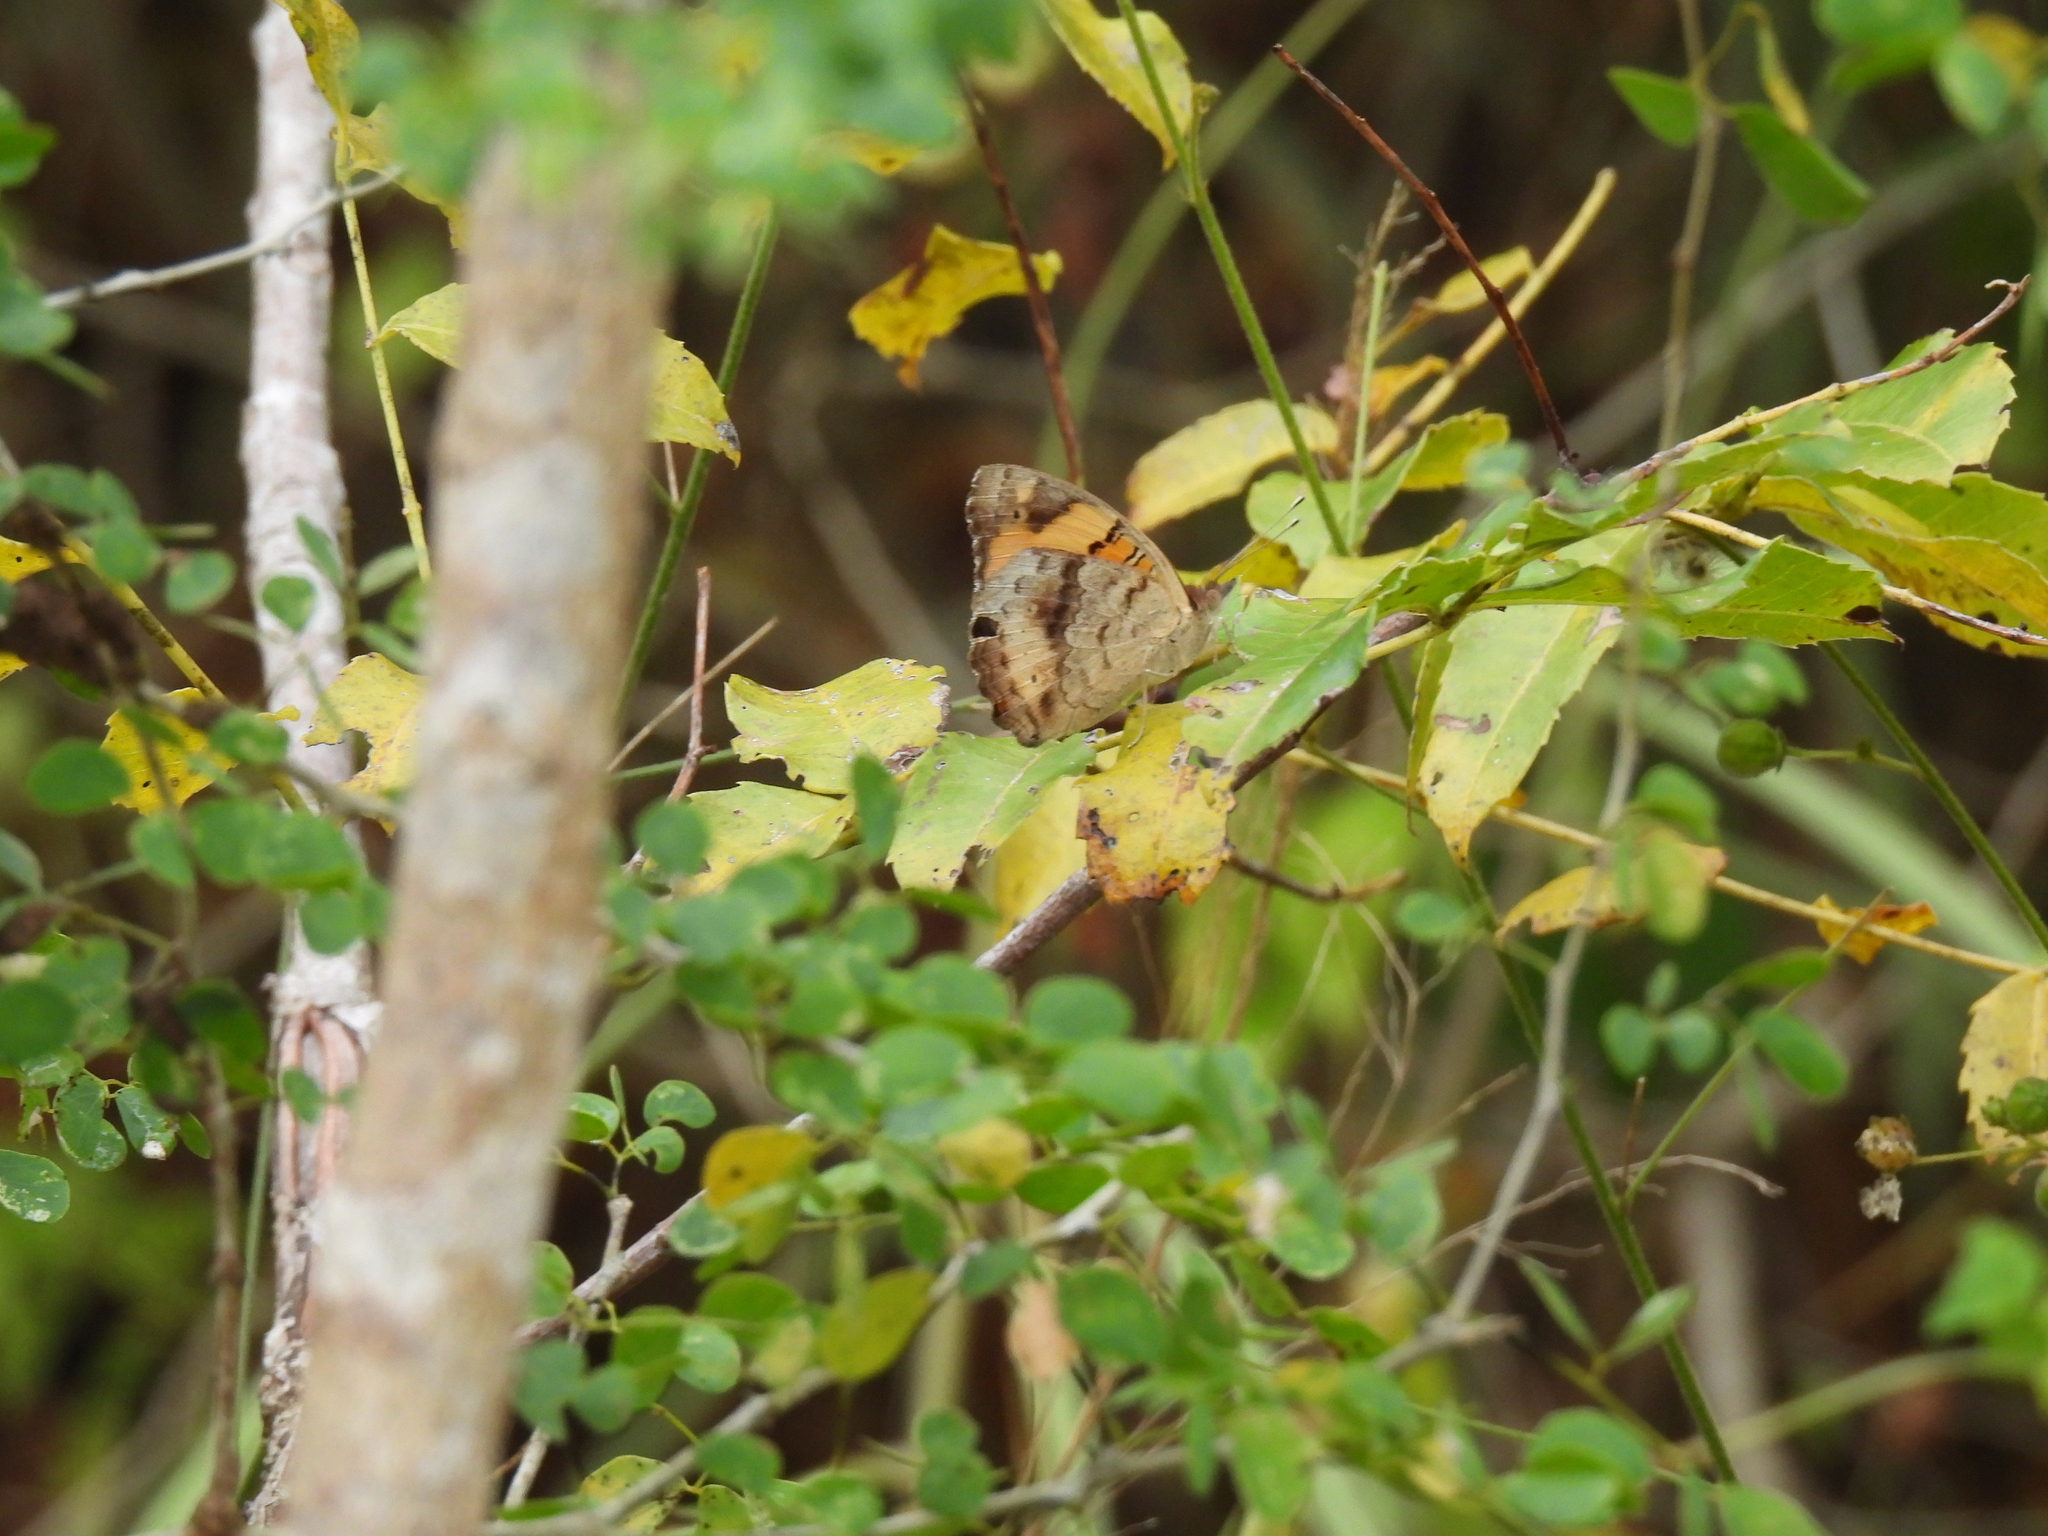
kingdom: Animalia
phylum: Arthropoda
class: Insecta
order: Lepidoptera
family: Nymphalidae
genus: Junonia
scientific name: Junonia hierta
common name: Yellow pansy
